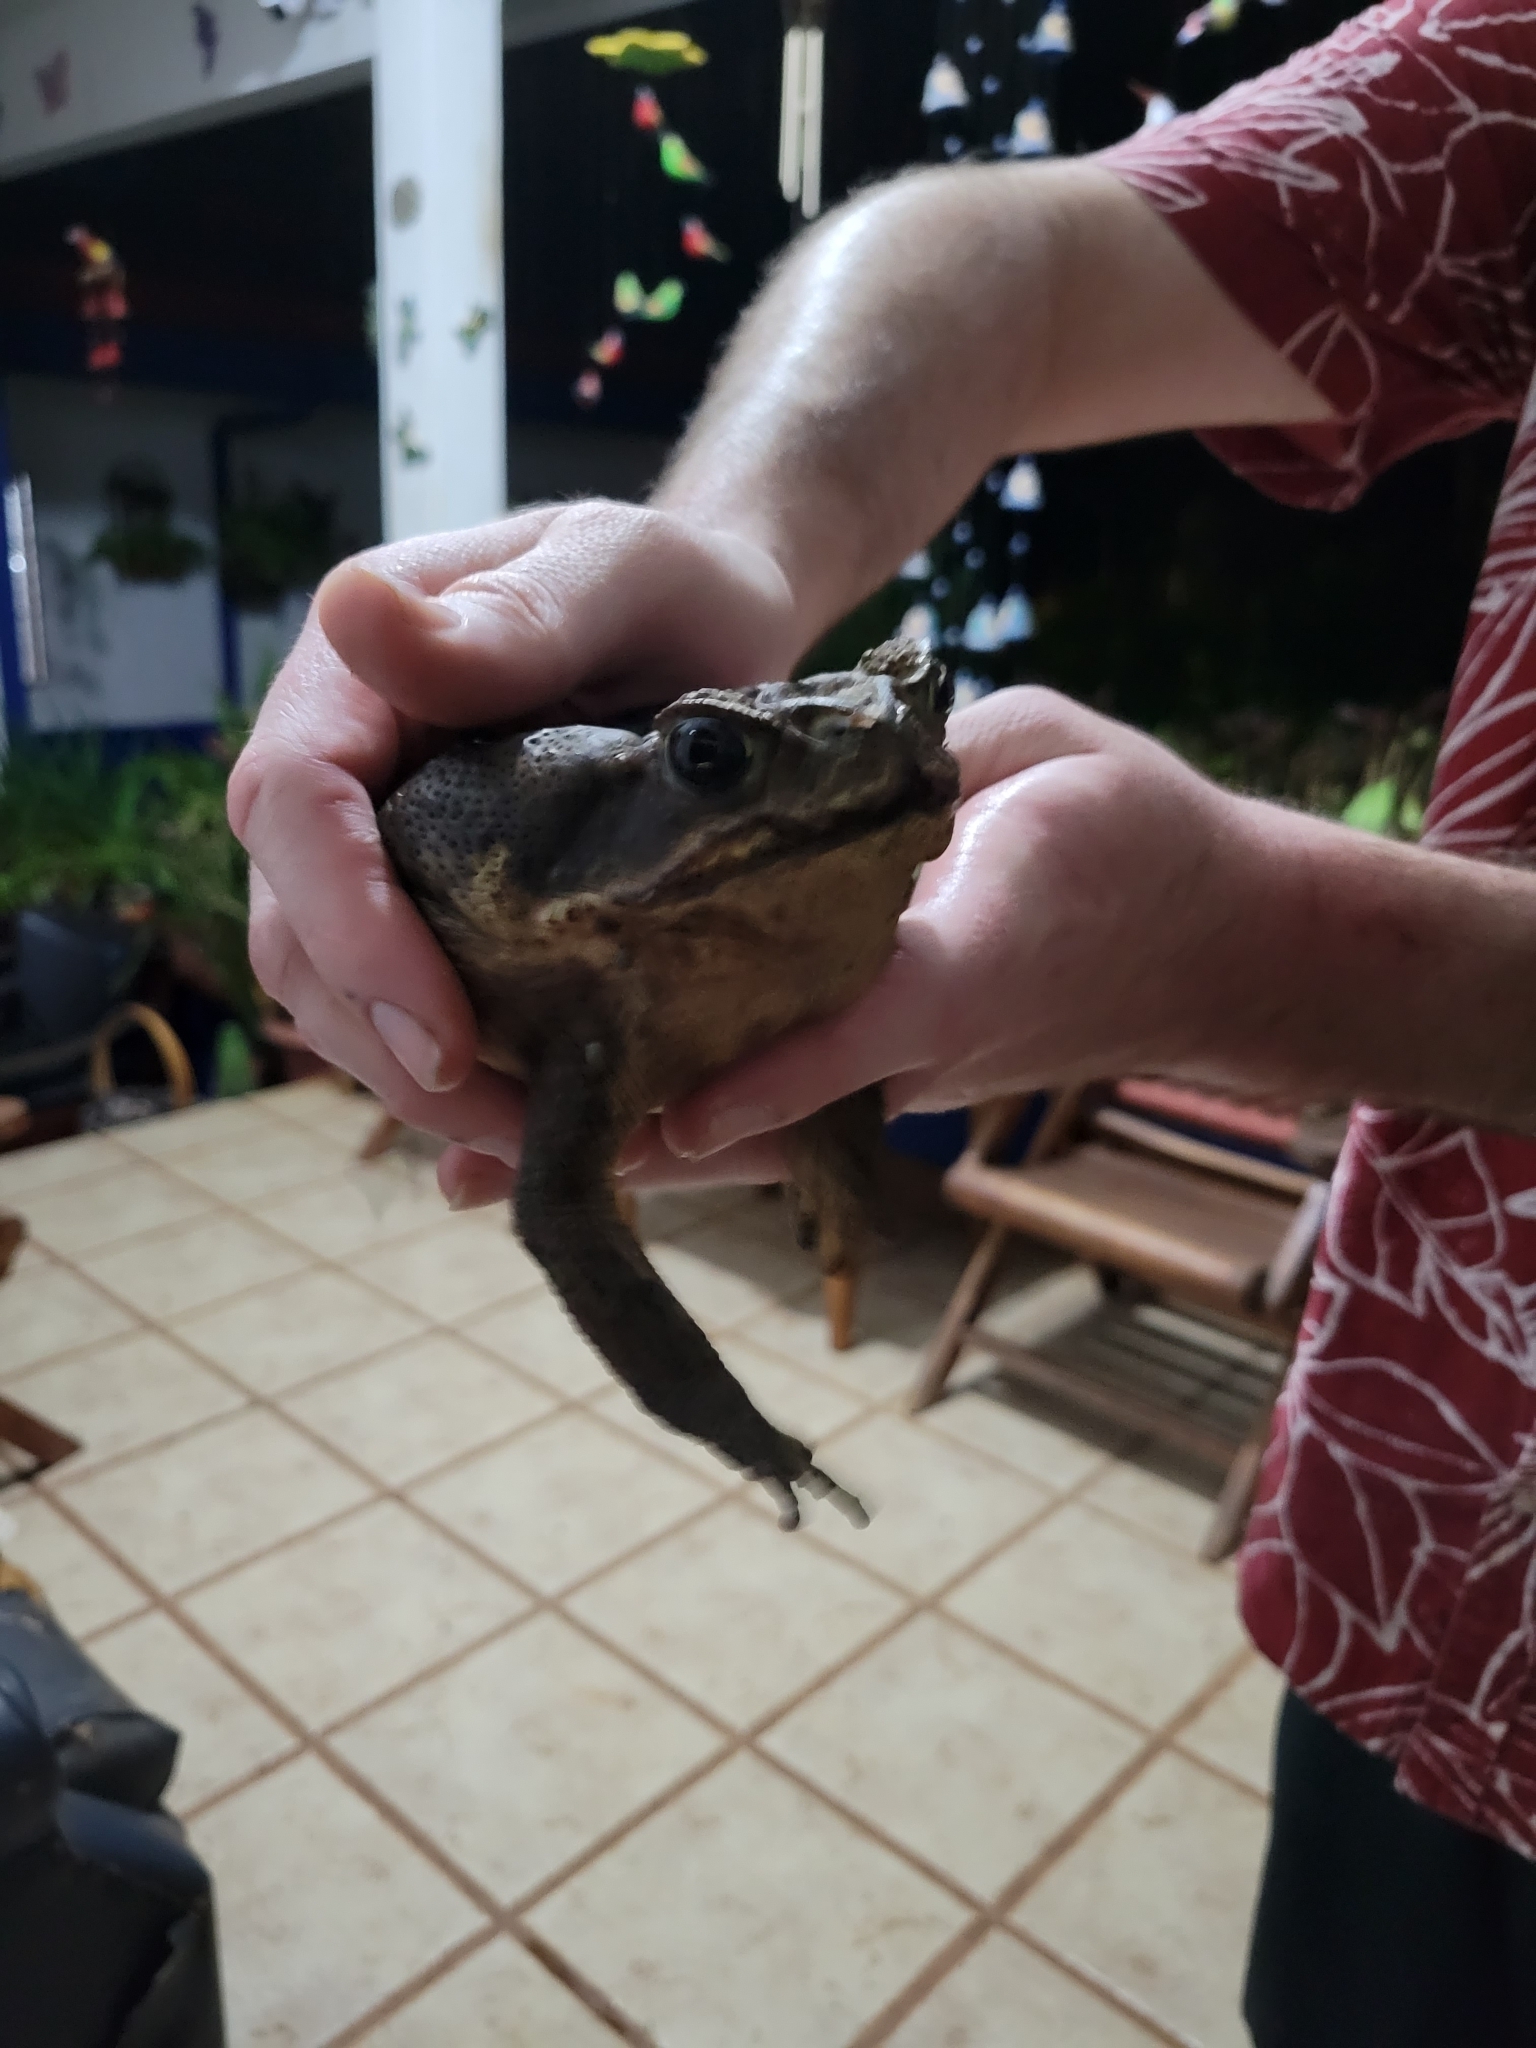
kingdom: Animalia
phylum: Chordata
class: Amphibia
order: Anura
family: Bufonidae
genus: Rhinella
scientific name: Rhinella horribilis
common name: Mesoamerican cane toad
